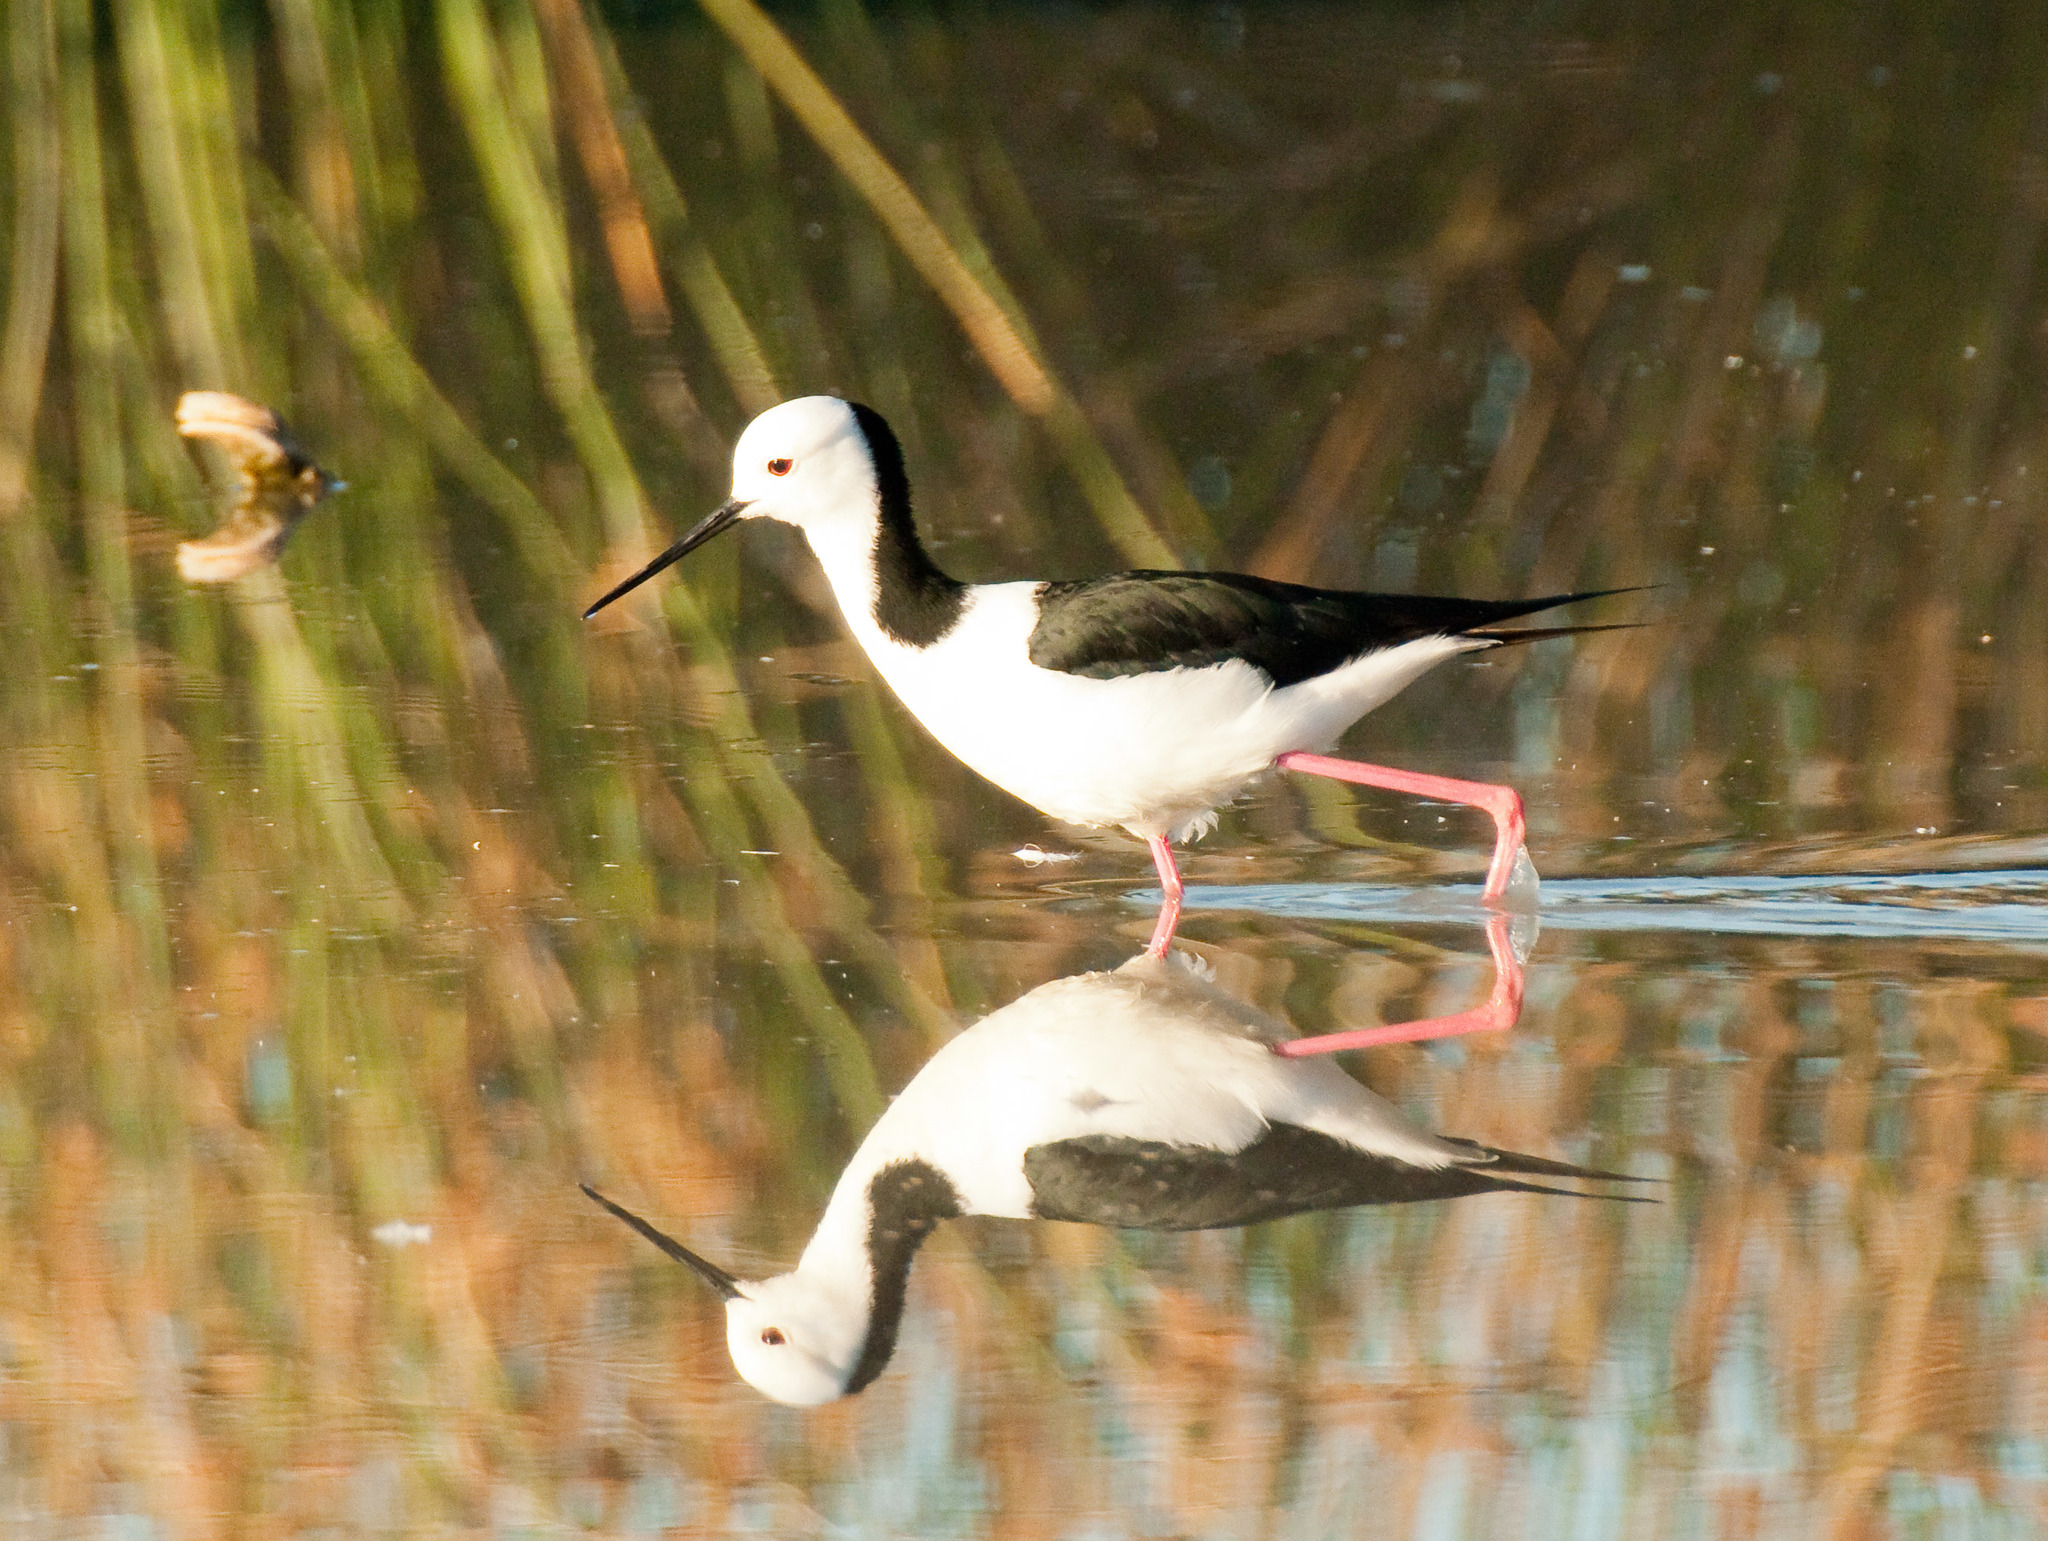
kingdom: Animalia
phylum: Chordata
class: Aves
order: Charadriiformes
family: Recurvirostridae
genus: Himantopus
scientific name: Himantopus leucocephalus
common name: White-headed stilt
